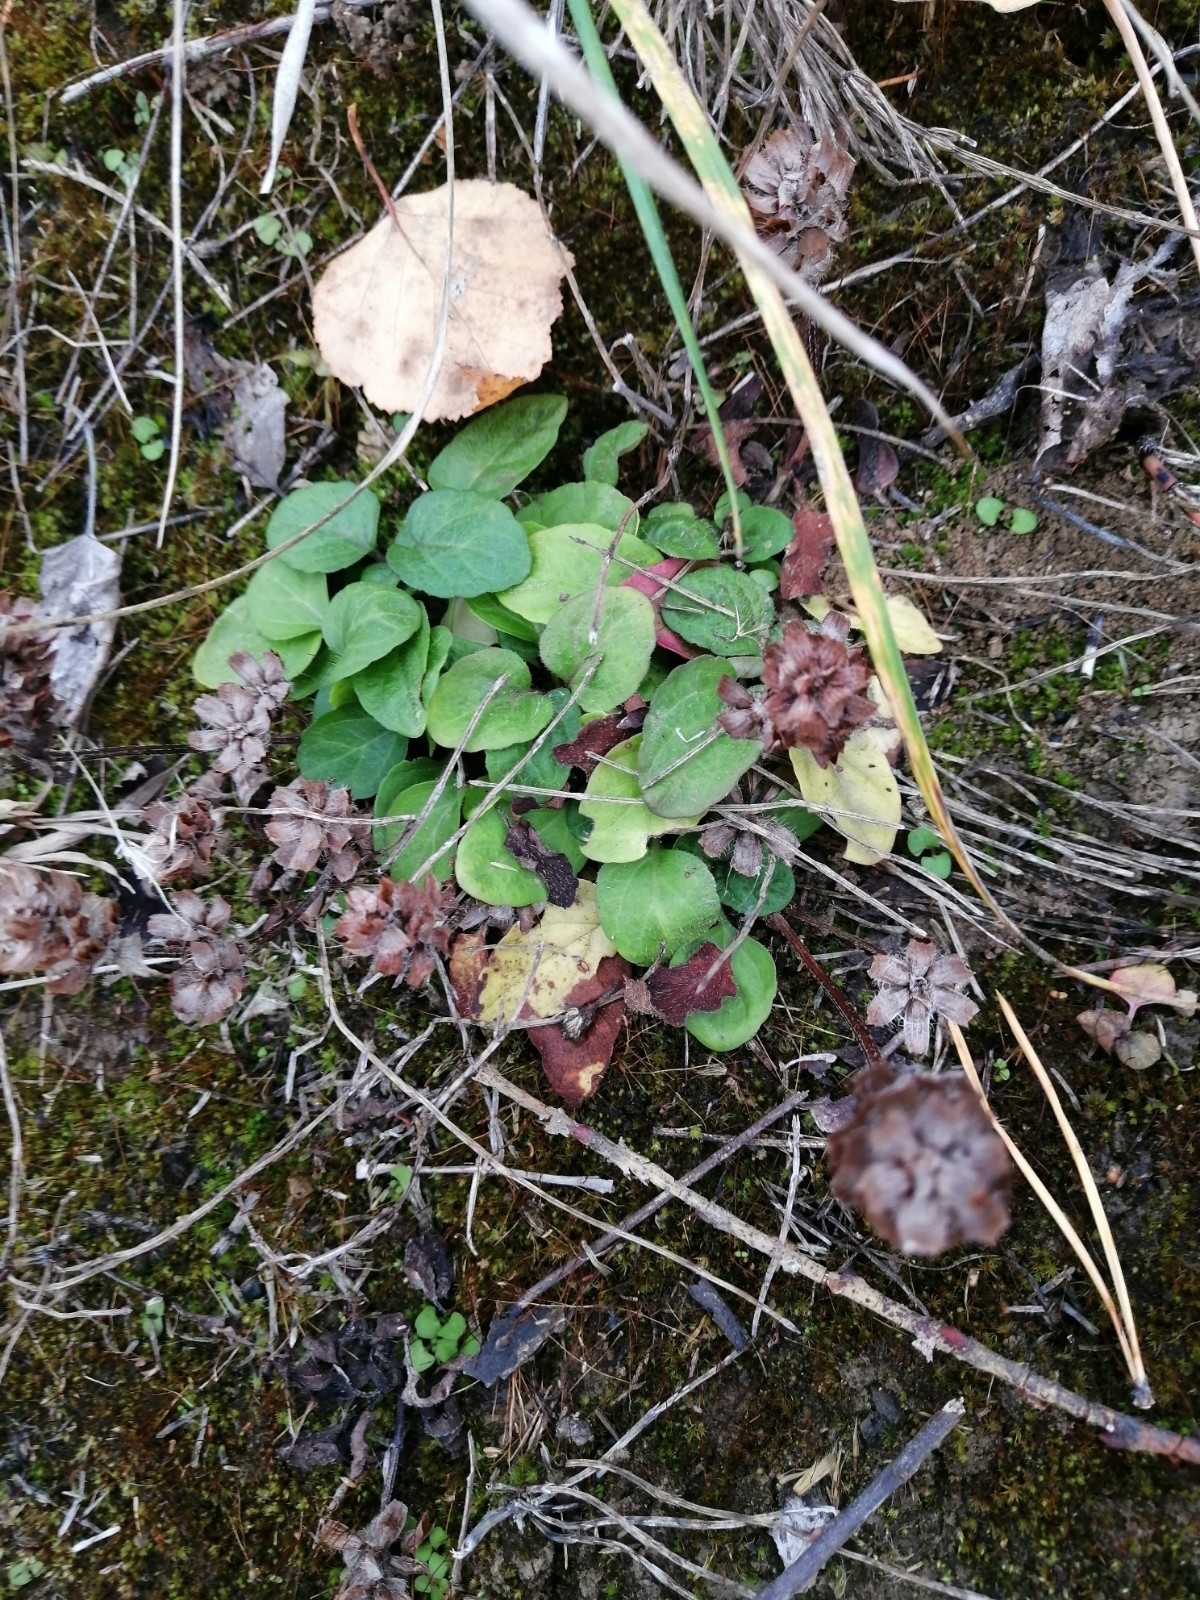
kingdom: Plantae
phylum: Tracheophyta
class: Magnoliopsida
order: Lamiales
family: Lamiaceae
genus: Prunella
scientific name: Prunella vulgaris
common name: Heal-all
